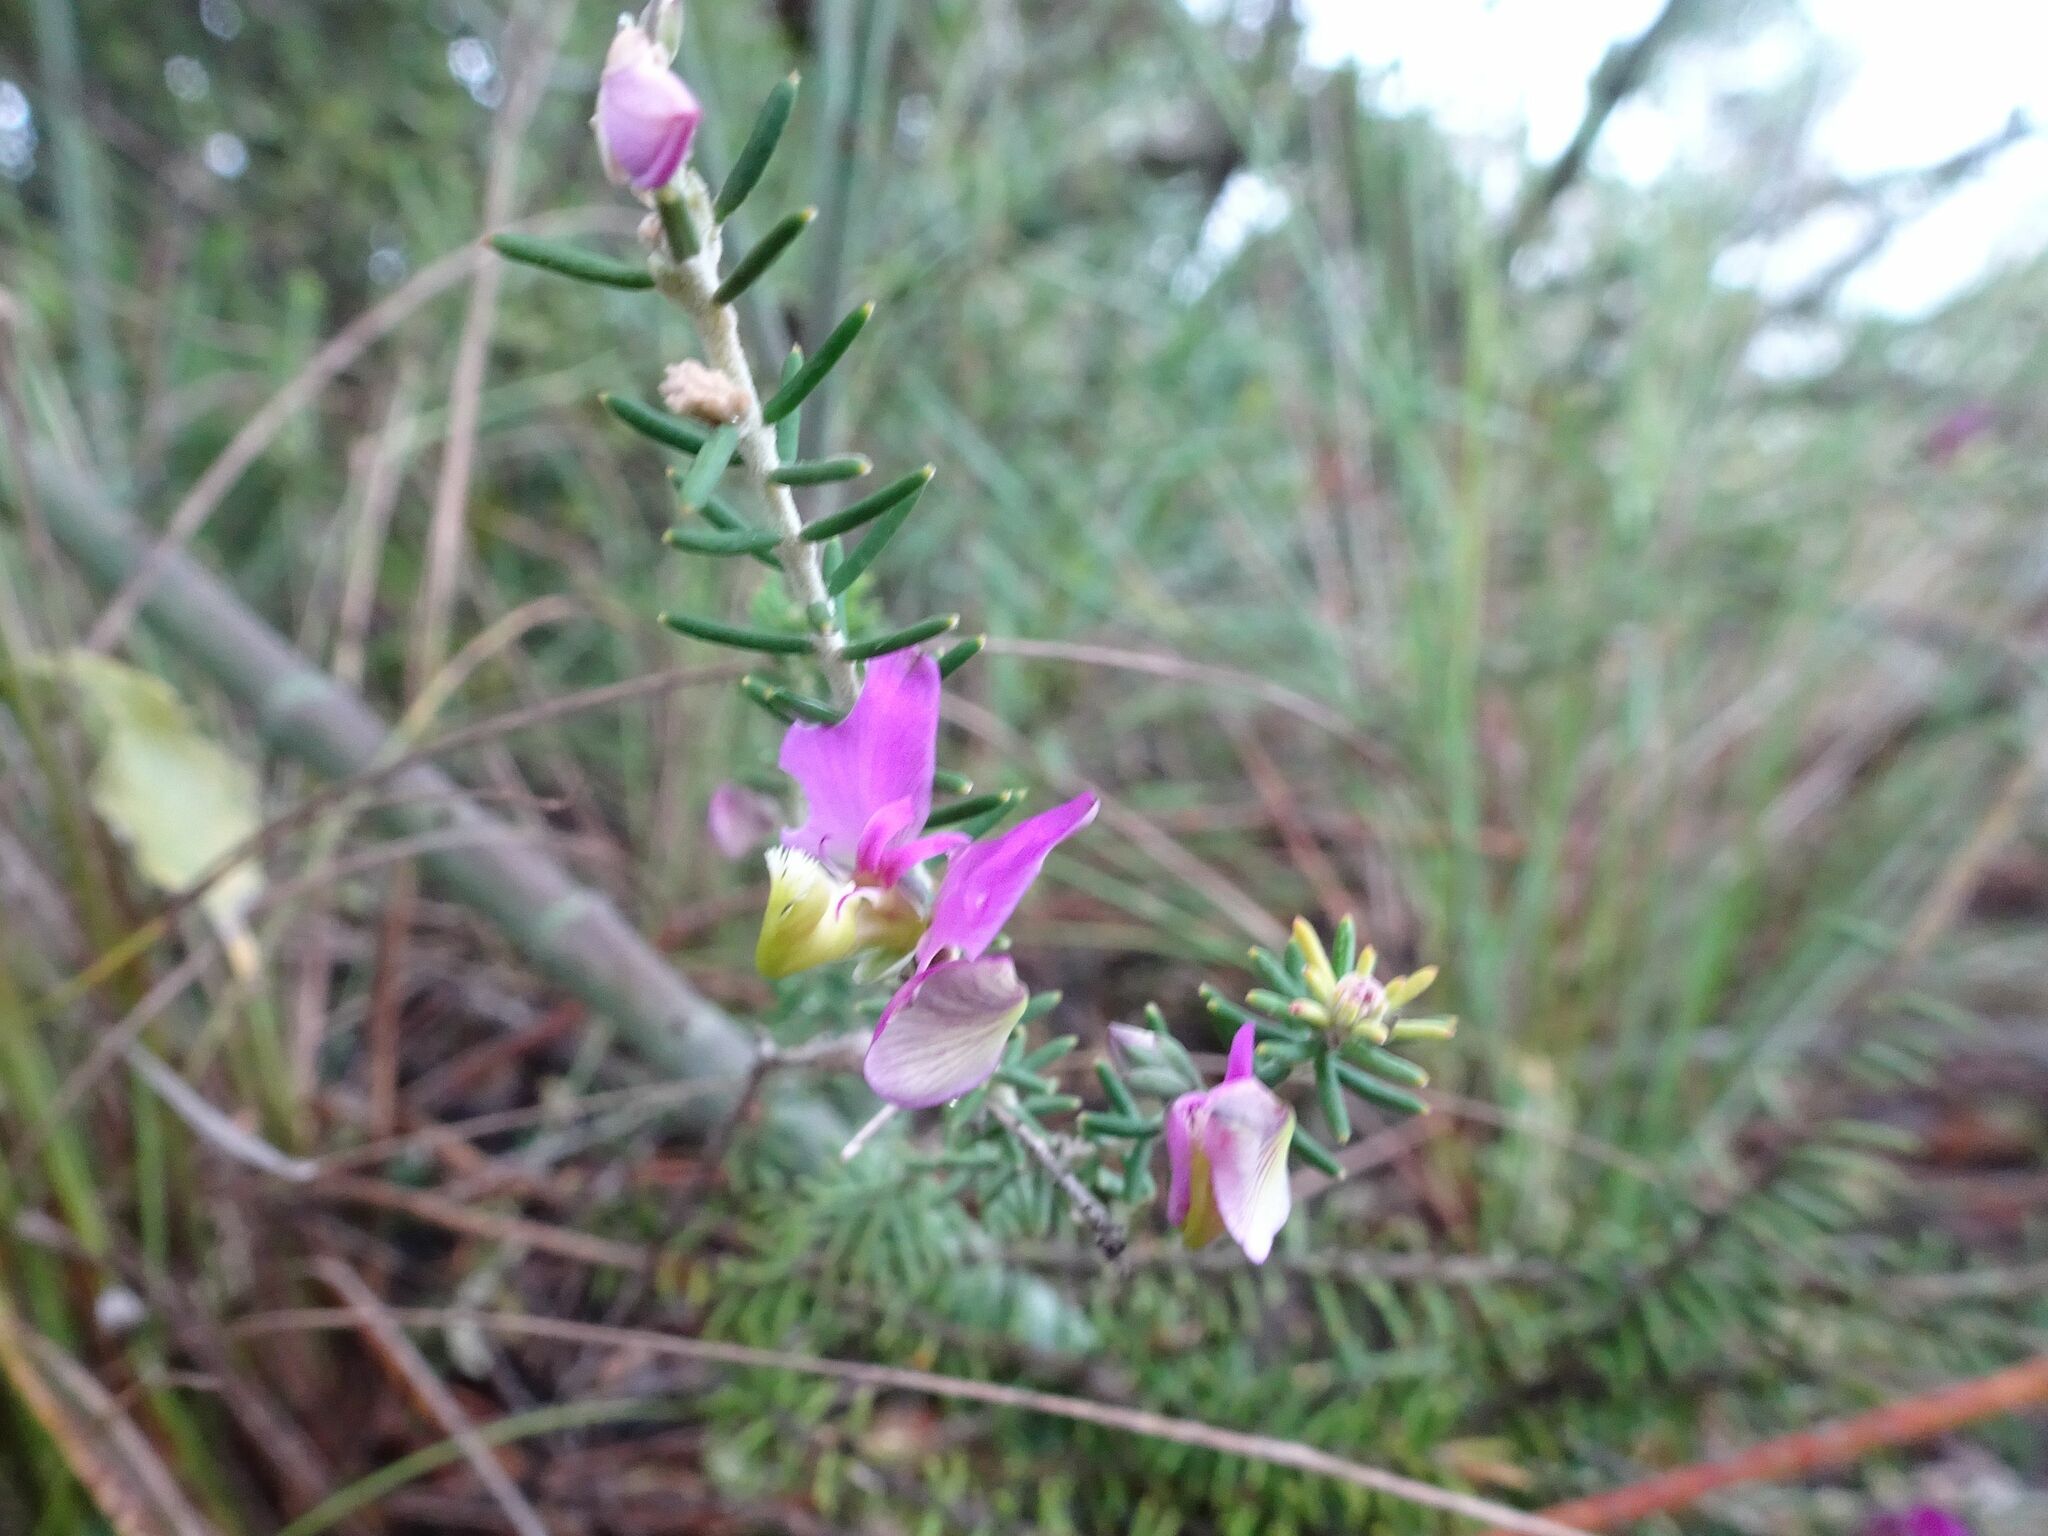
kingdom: Plantae
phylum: Tracheophyta
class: Magnoliopsida
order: Fabales
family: Polygalaceae
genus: Polygala
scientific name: Polygala teretifolia
